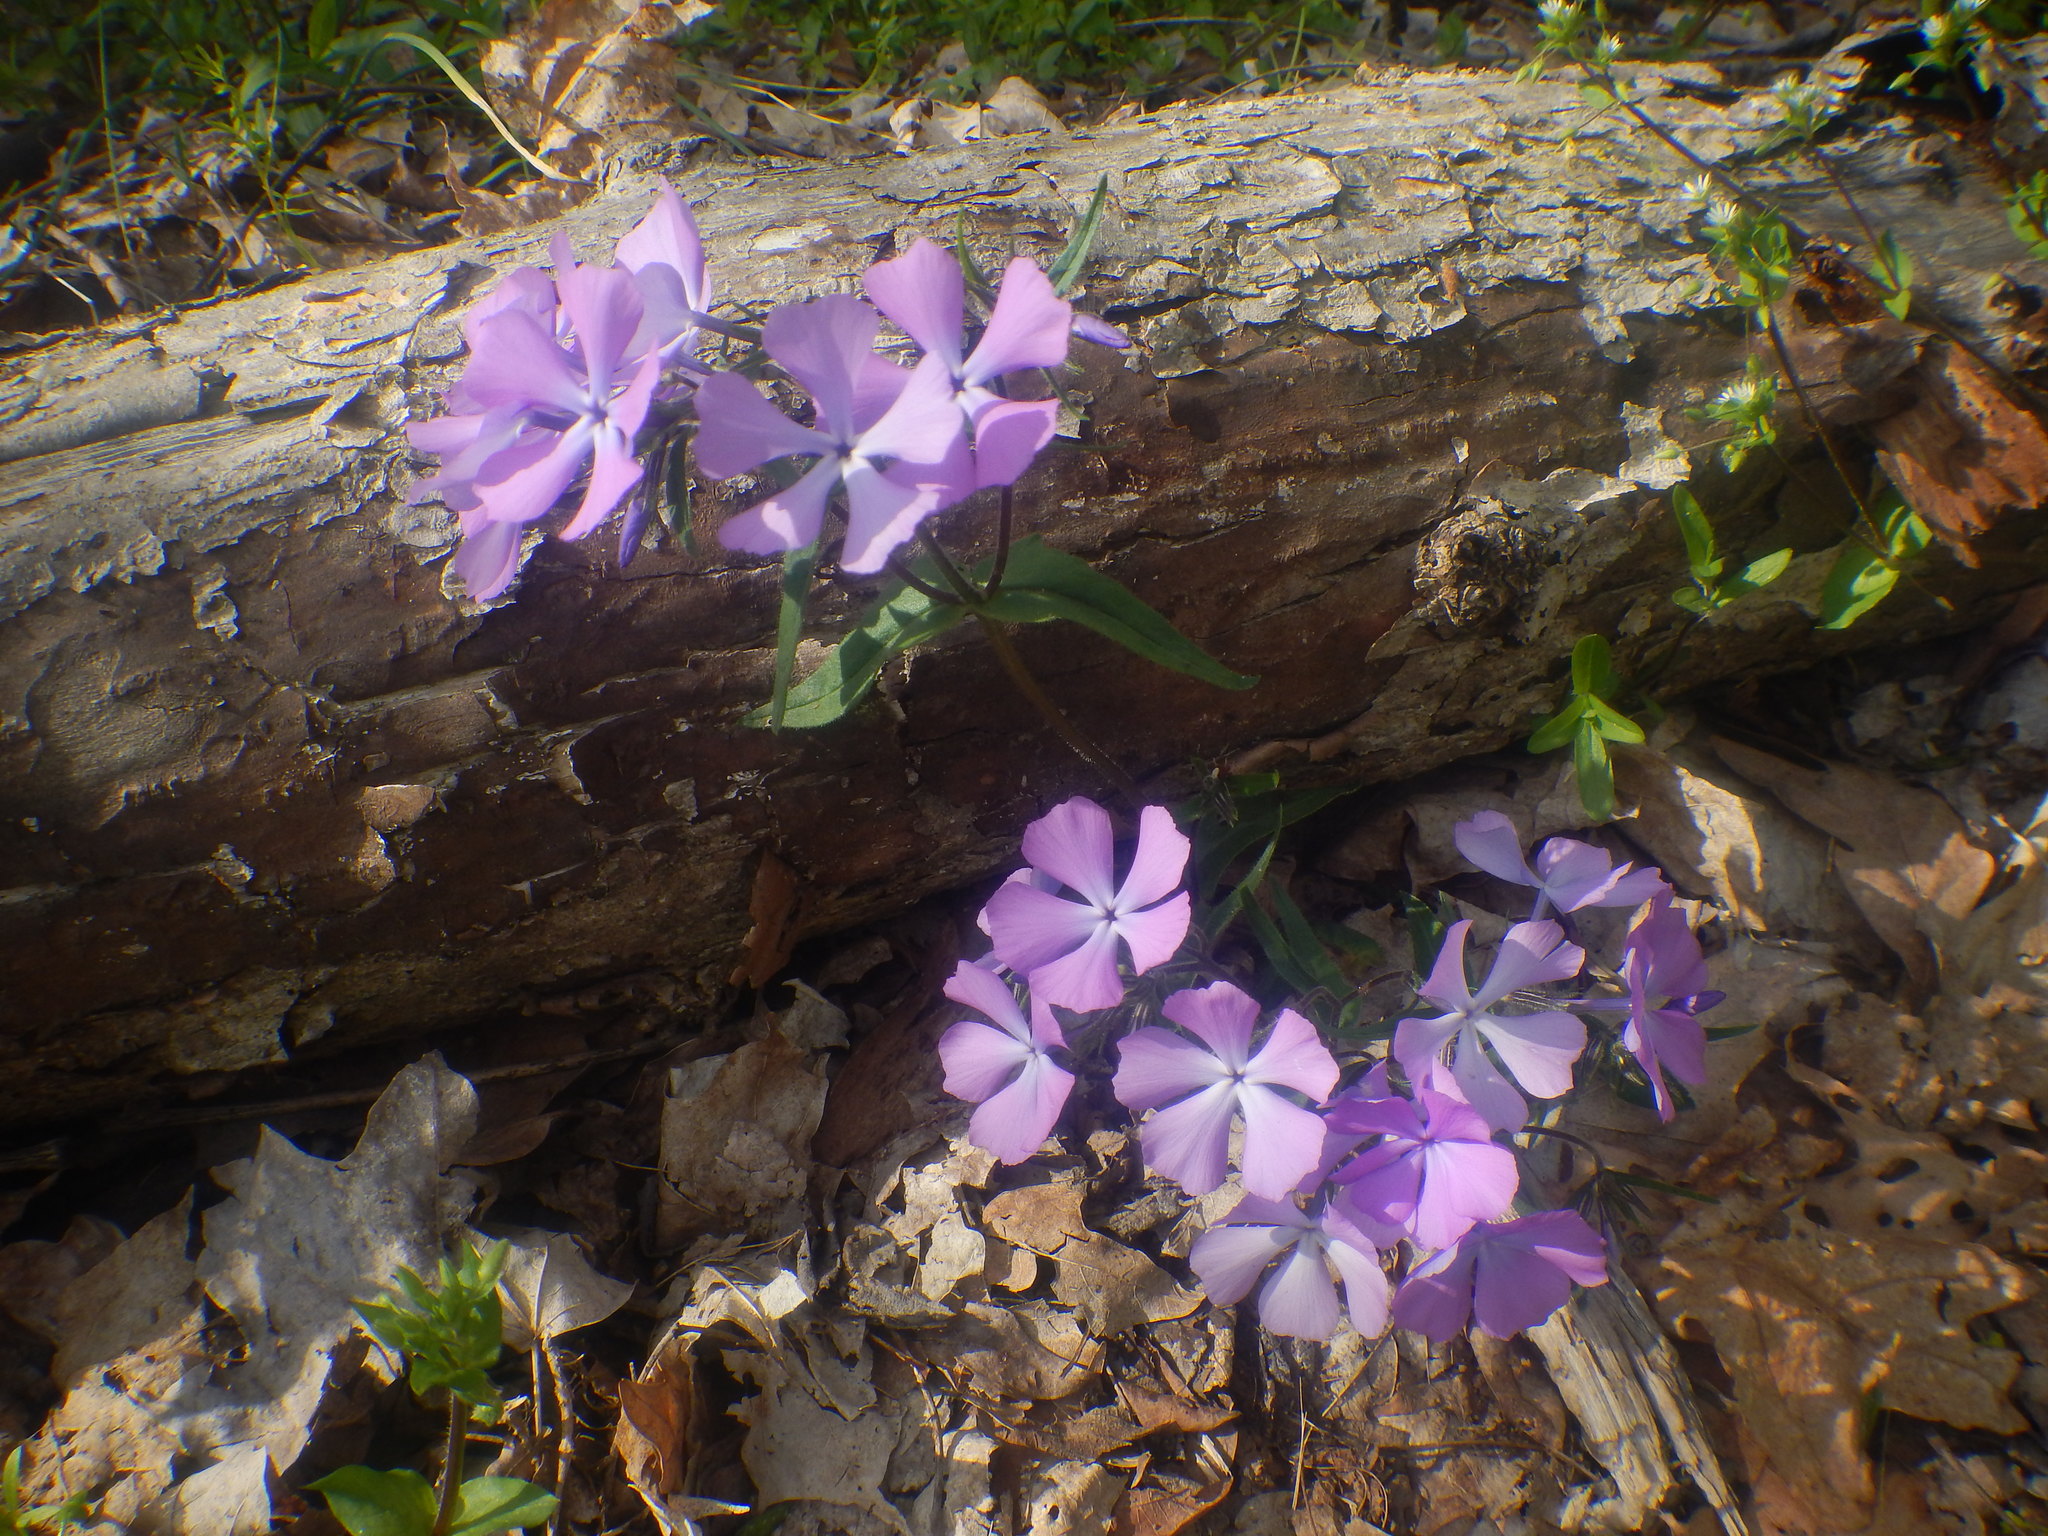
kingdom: Plantae
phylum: Tracheophyta
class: Magnoliopsida
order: Ericales
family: Polemoniaceae
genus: Phlox
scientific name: Phlox divaricata
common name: Blue phlox
